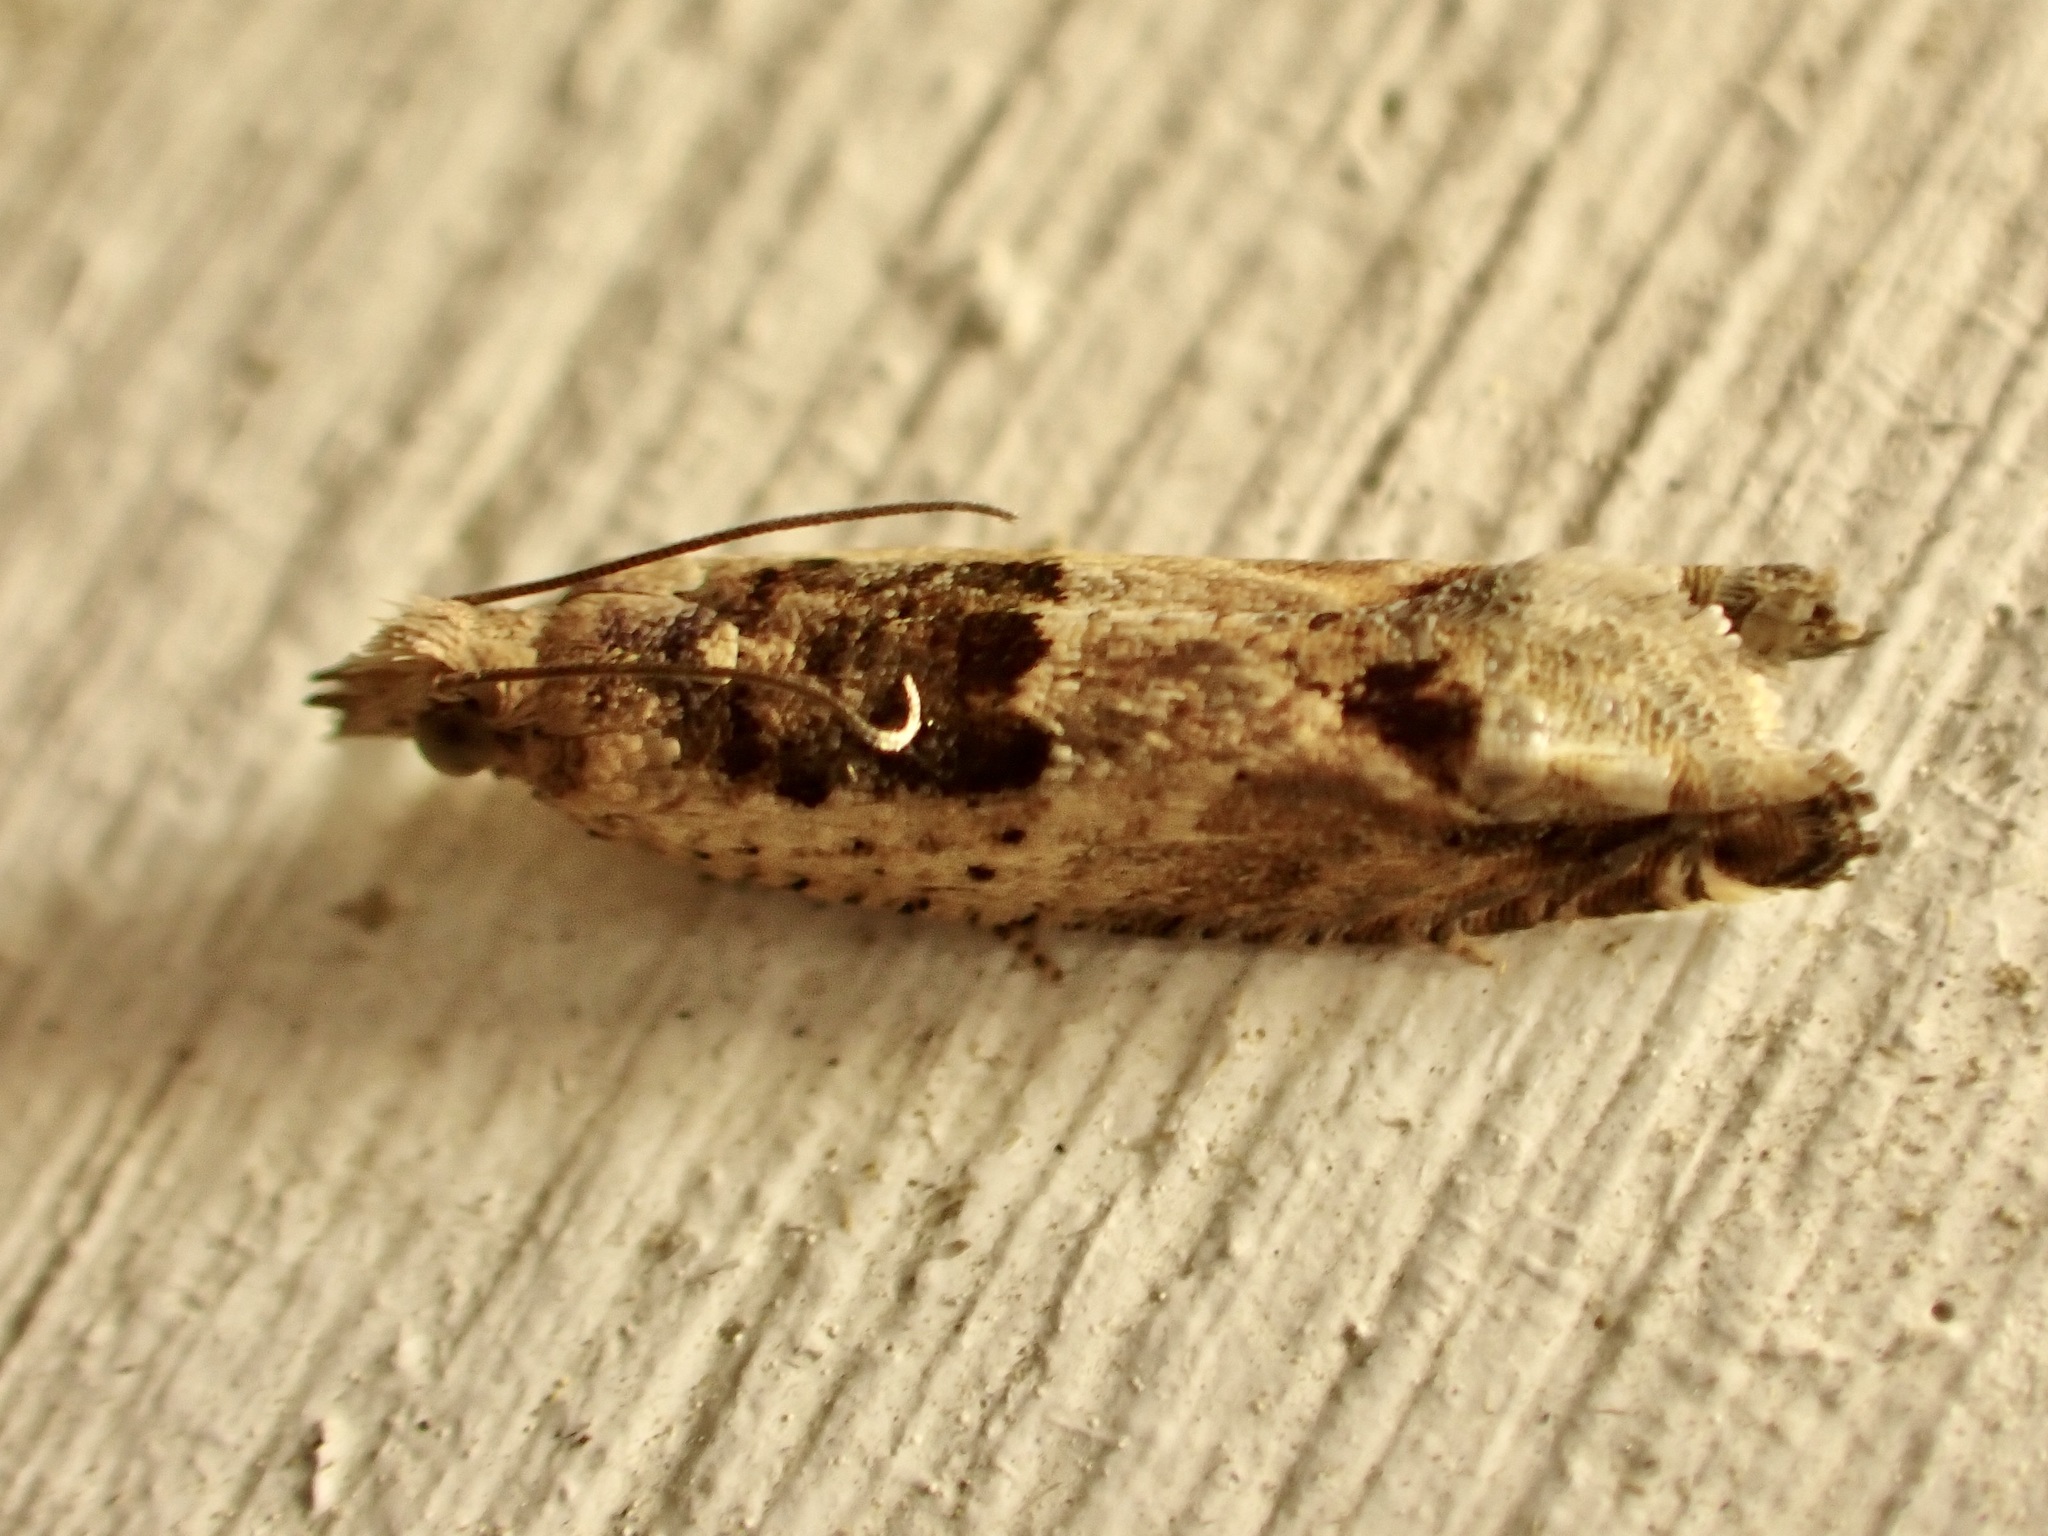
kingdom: Animalia
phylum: Arthropoda
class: Insecta
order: Lepidoptera
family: Tortricidae
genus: Crocidosema
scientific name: Crocidosema plebejana
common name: Southern bell
